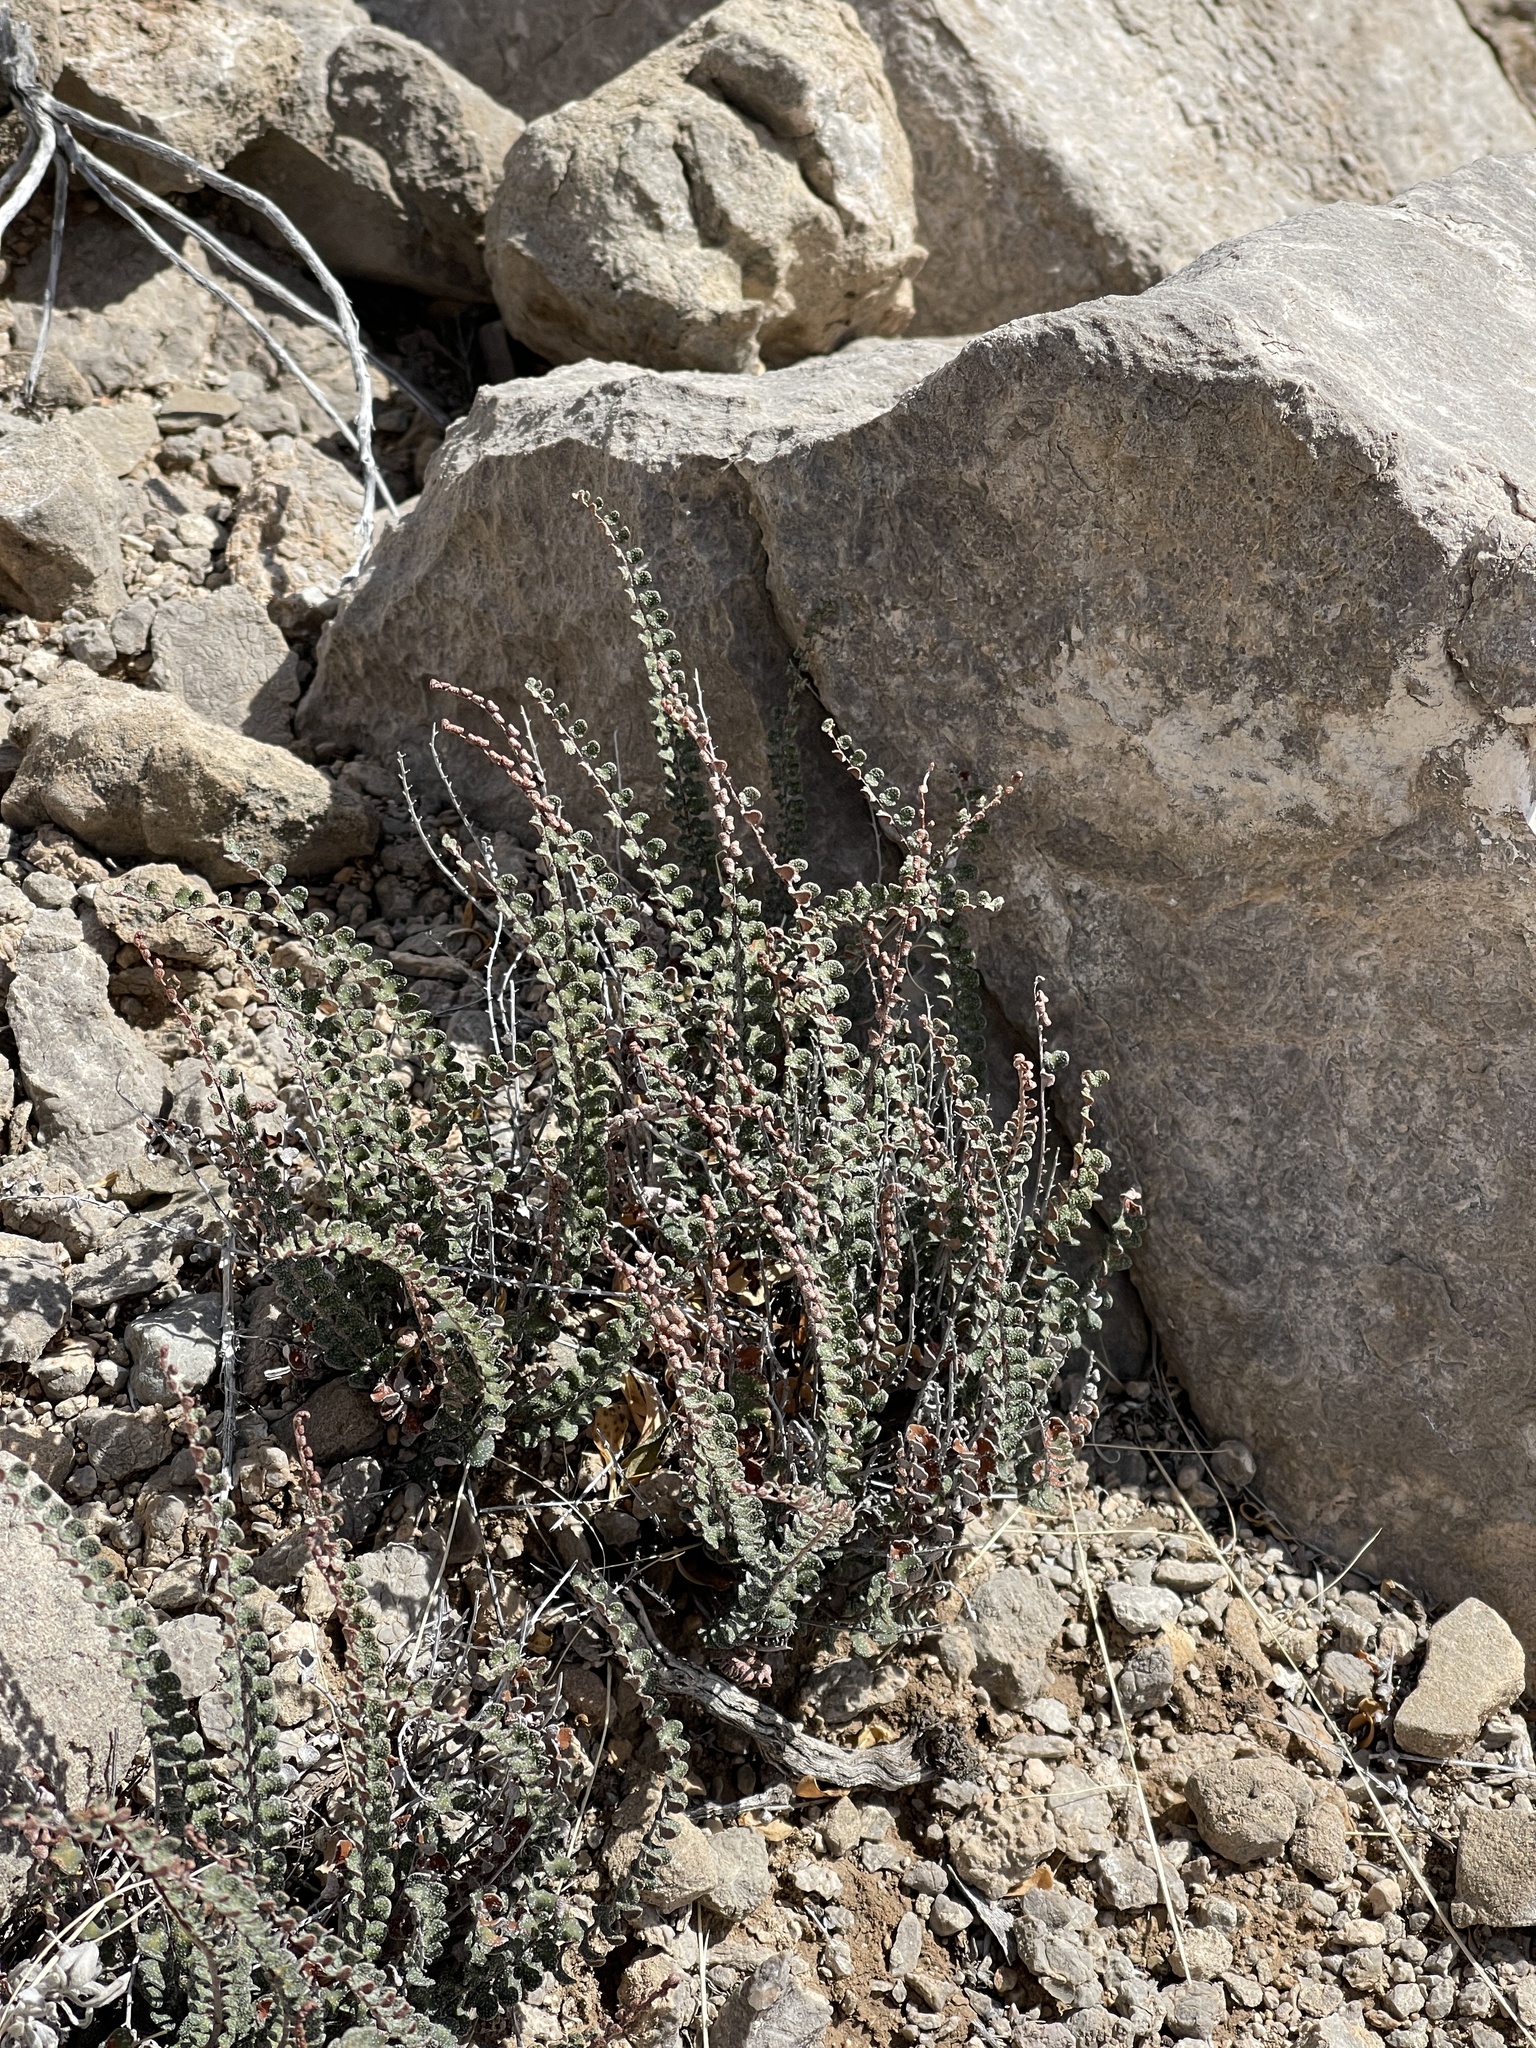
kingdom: Plantae
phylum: Tracheophyta
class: Polypodiopsida
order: Polypodiales
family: Pteridaceae
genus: Astrolepis
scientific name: Astrolepis cochisensis
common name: Scaly cloak fern
